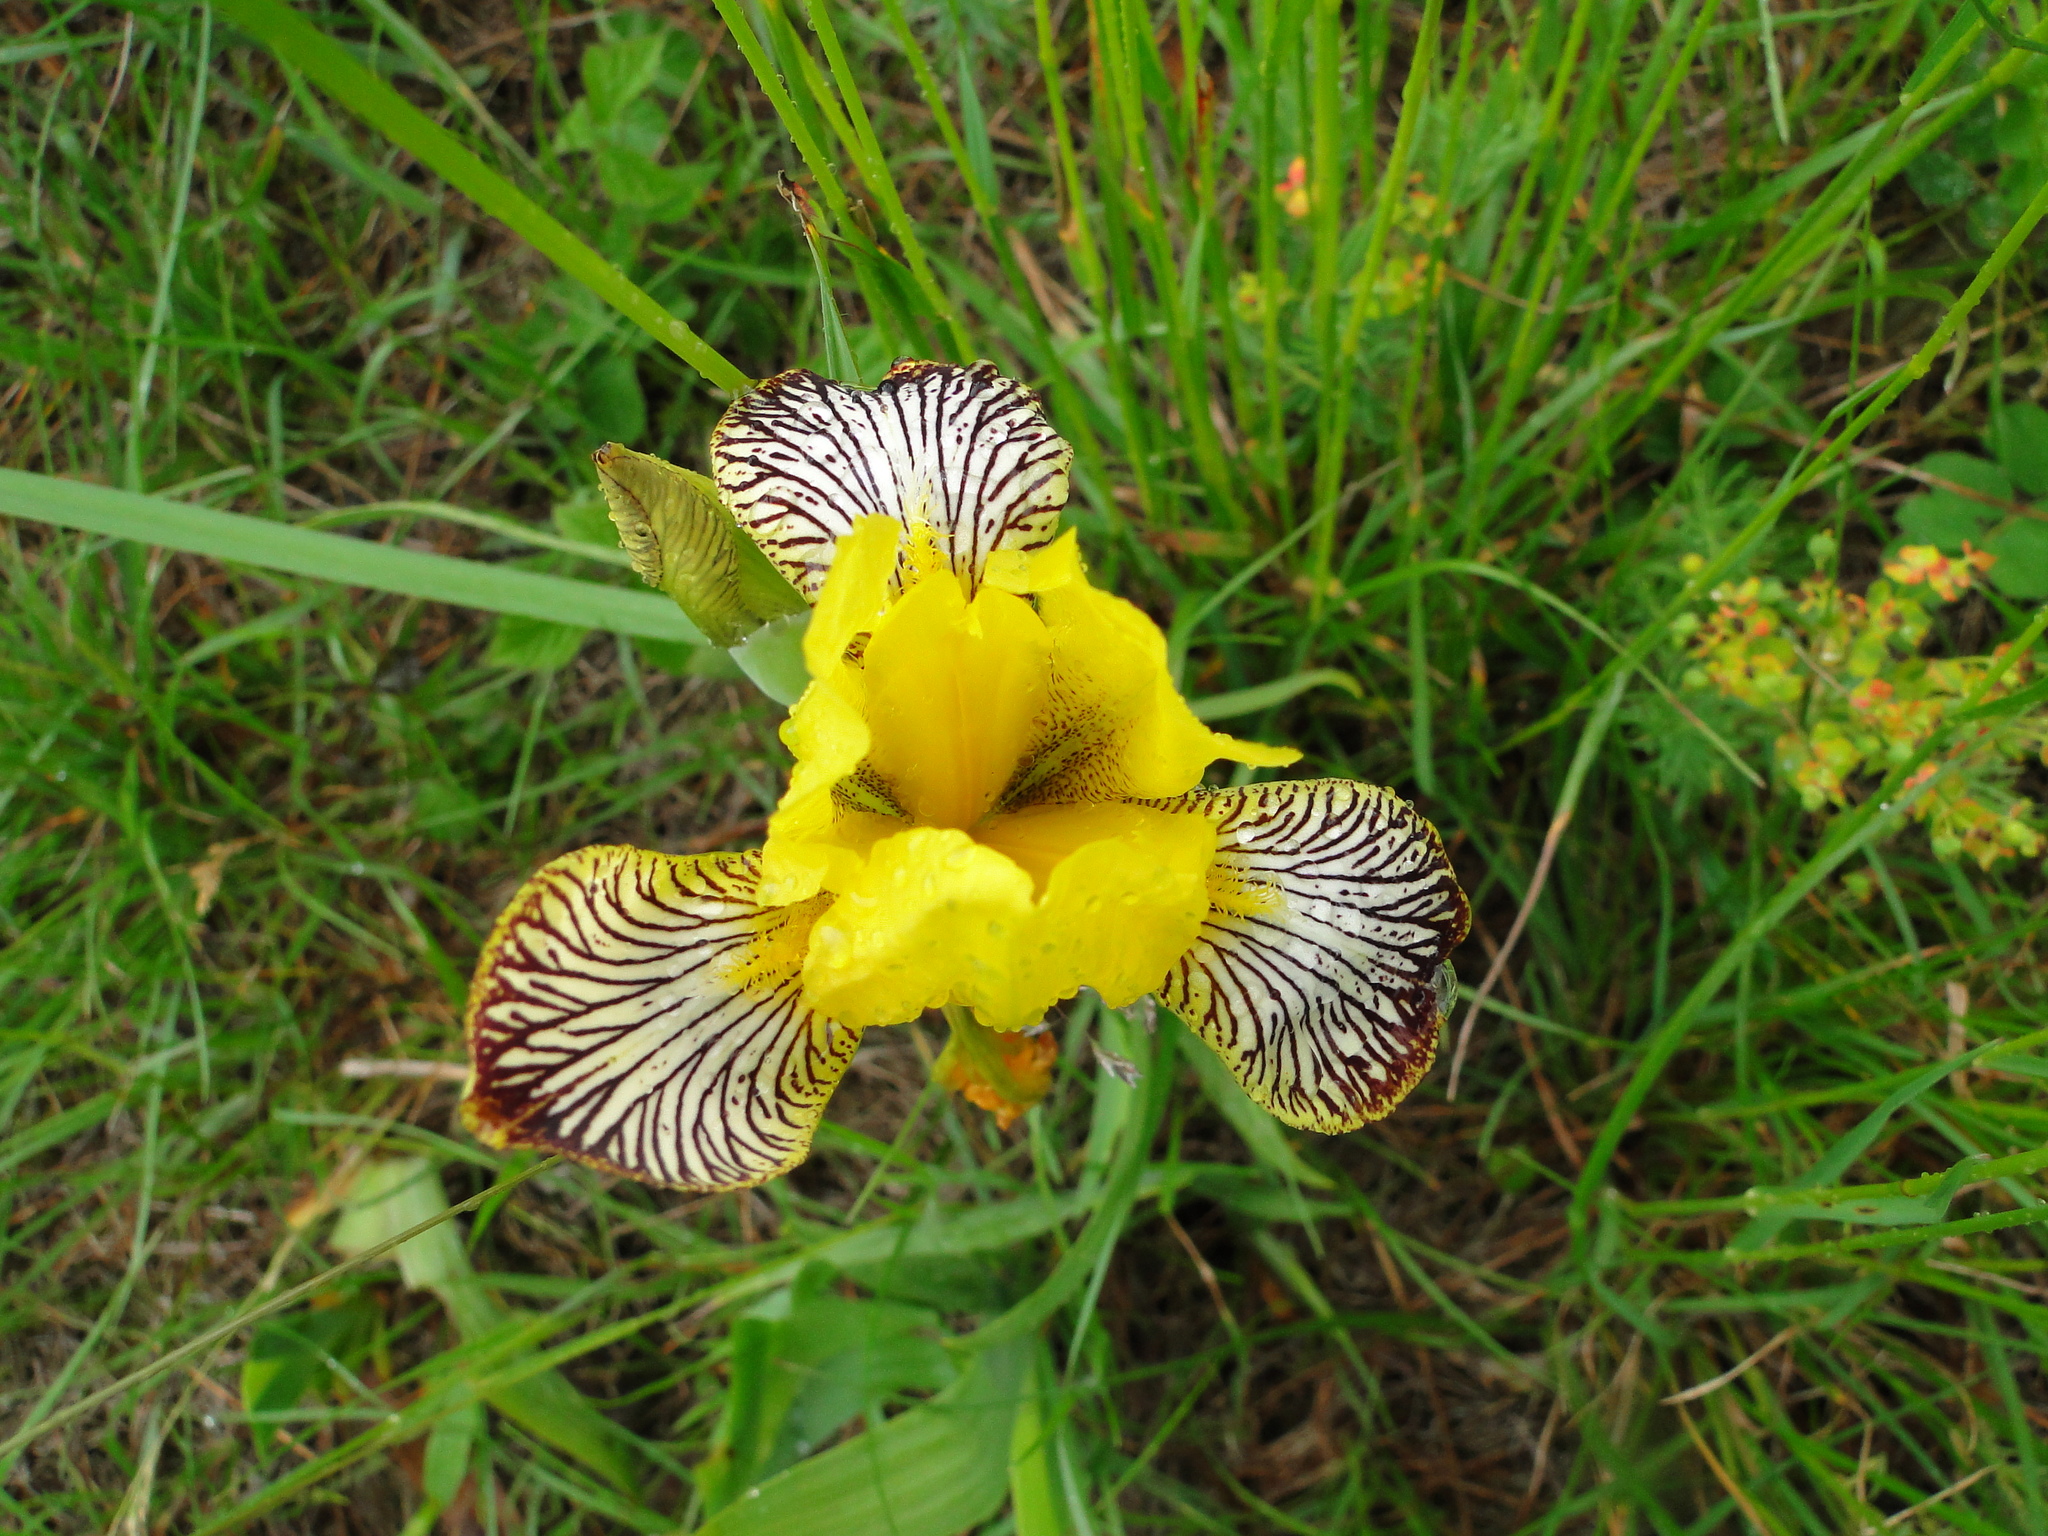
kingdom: Plantae
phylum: Tracheophyta
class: Liliopsida
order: Asparagales
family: Iridaceae
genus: Iris
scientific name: Iris variegata
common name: Hungarian iris
